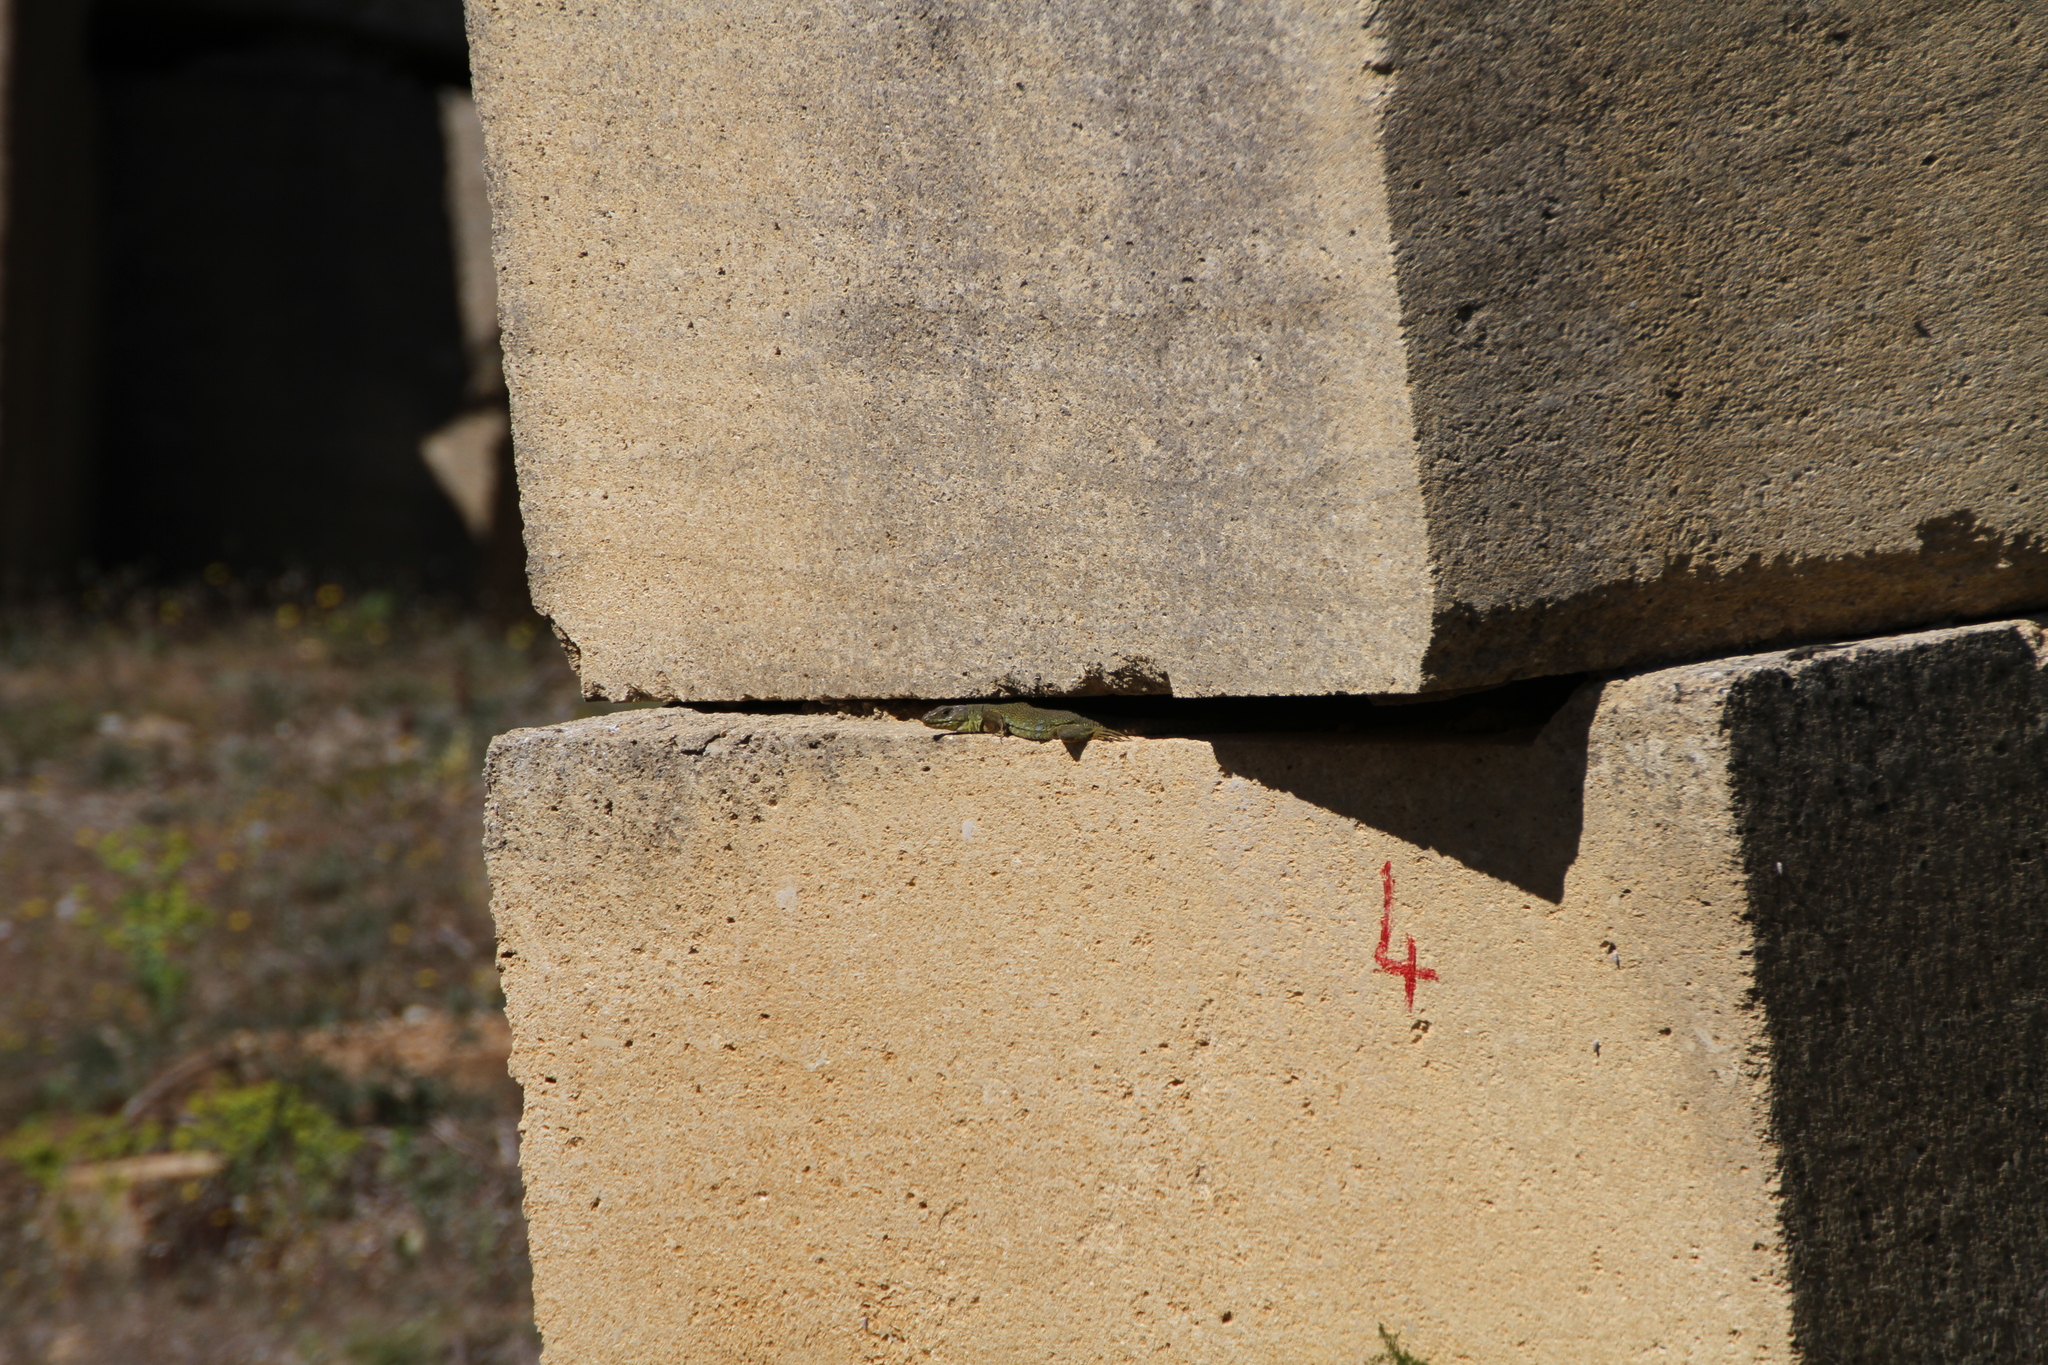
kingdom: Animalia
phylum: Chordata
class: Squamata
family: Lacertidae
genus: Timon
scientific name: Timon lepidus
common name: Ocellated lizard
